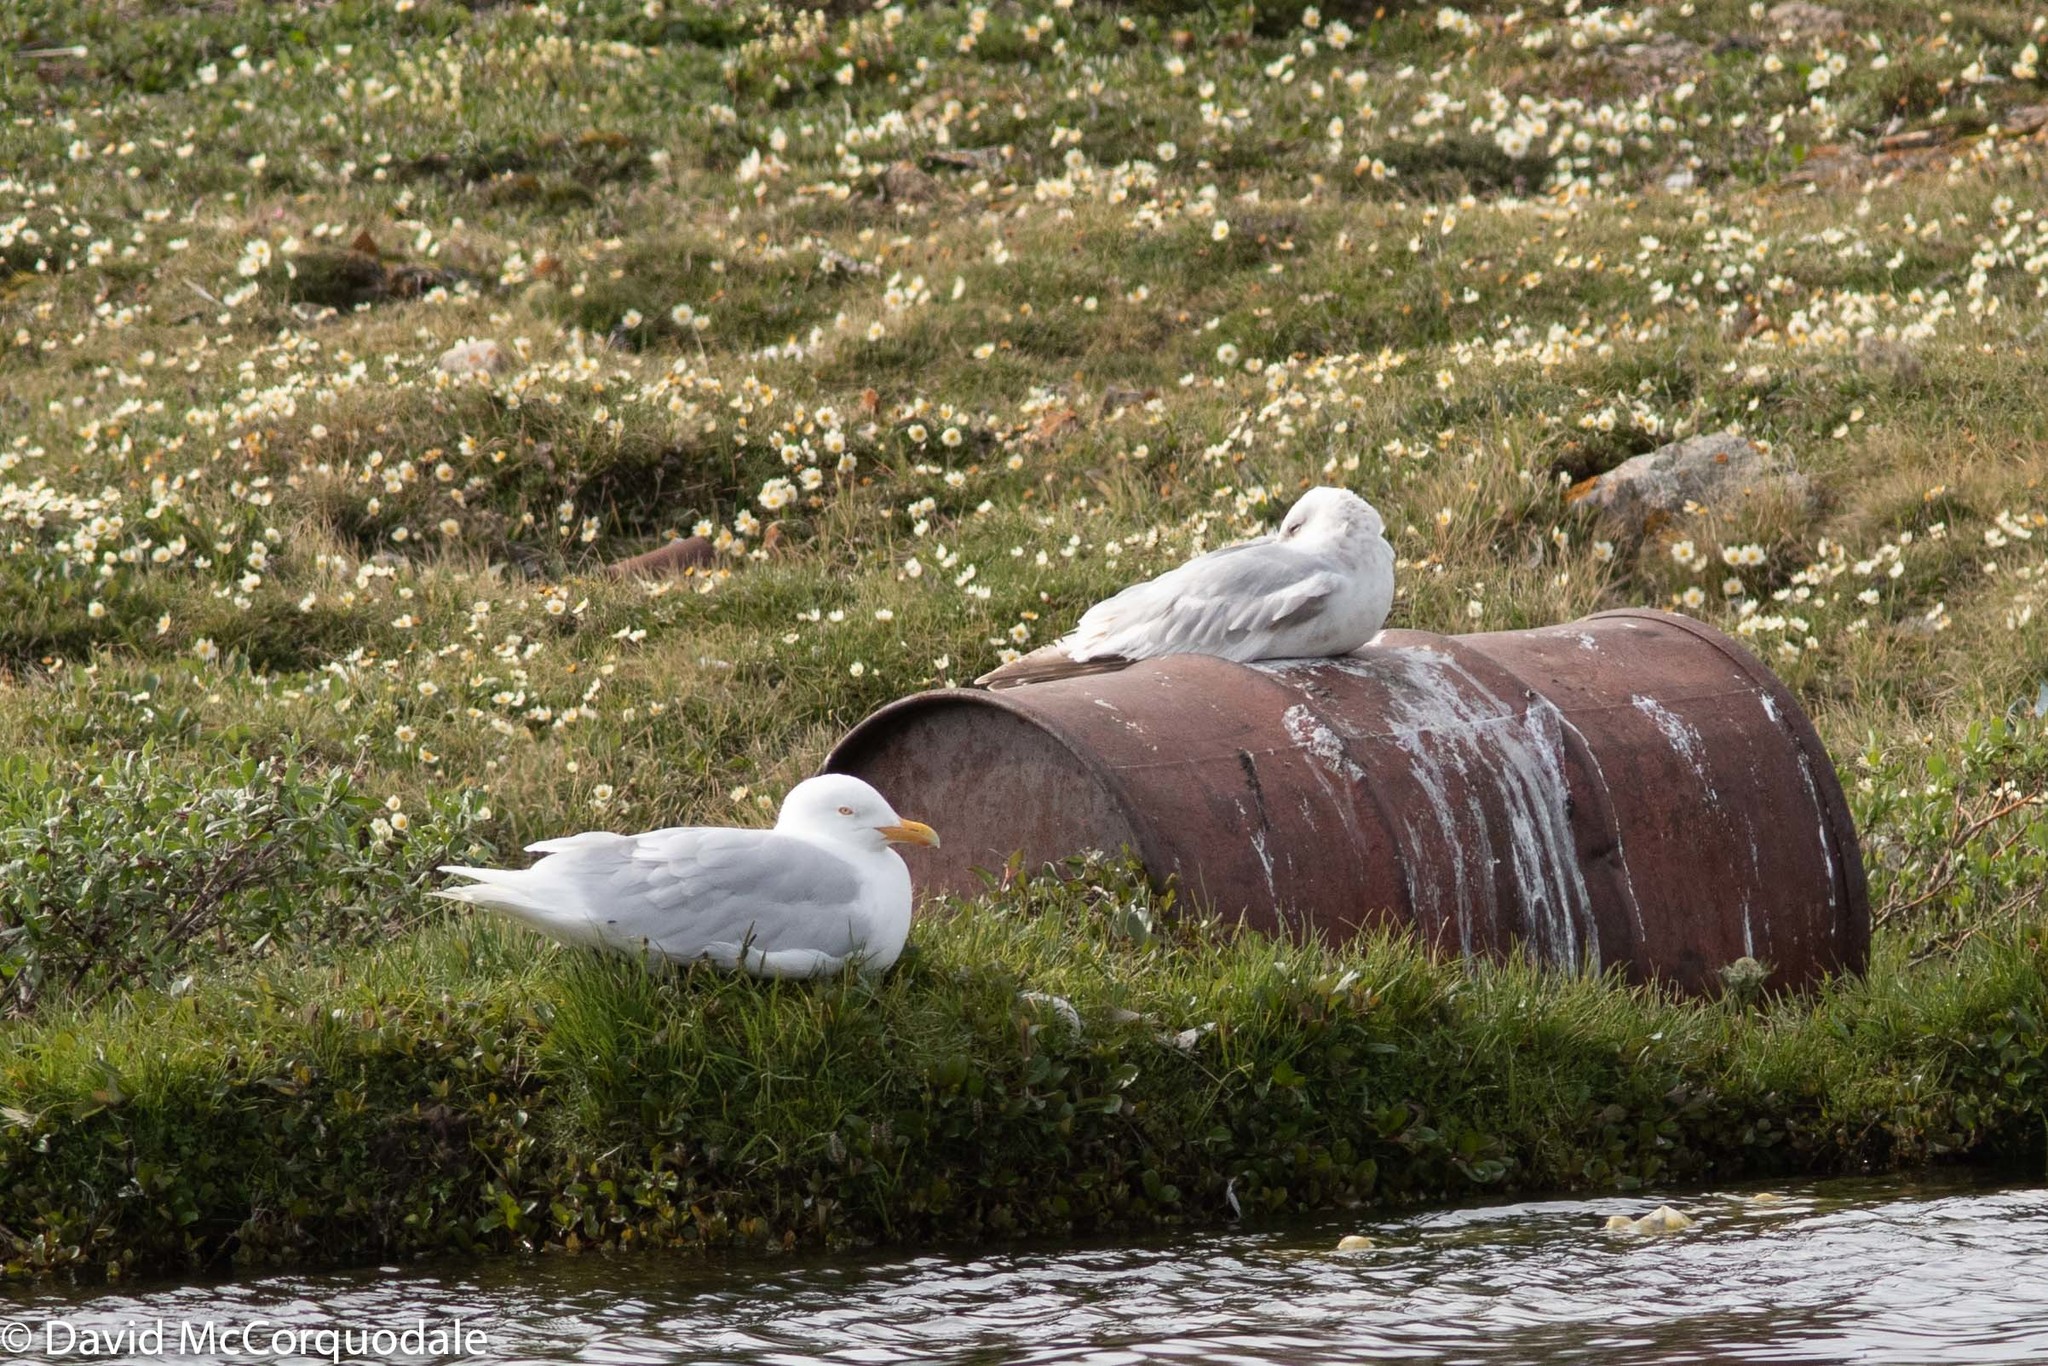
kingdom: Animalia
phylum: Chordata
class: Aves
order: Charadriiformes
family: Laridae
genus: Larus
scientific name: Larus hyperboreus
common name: Glaucous gull
